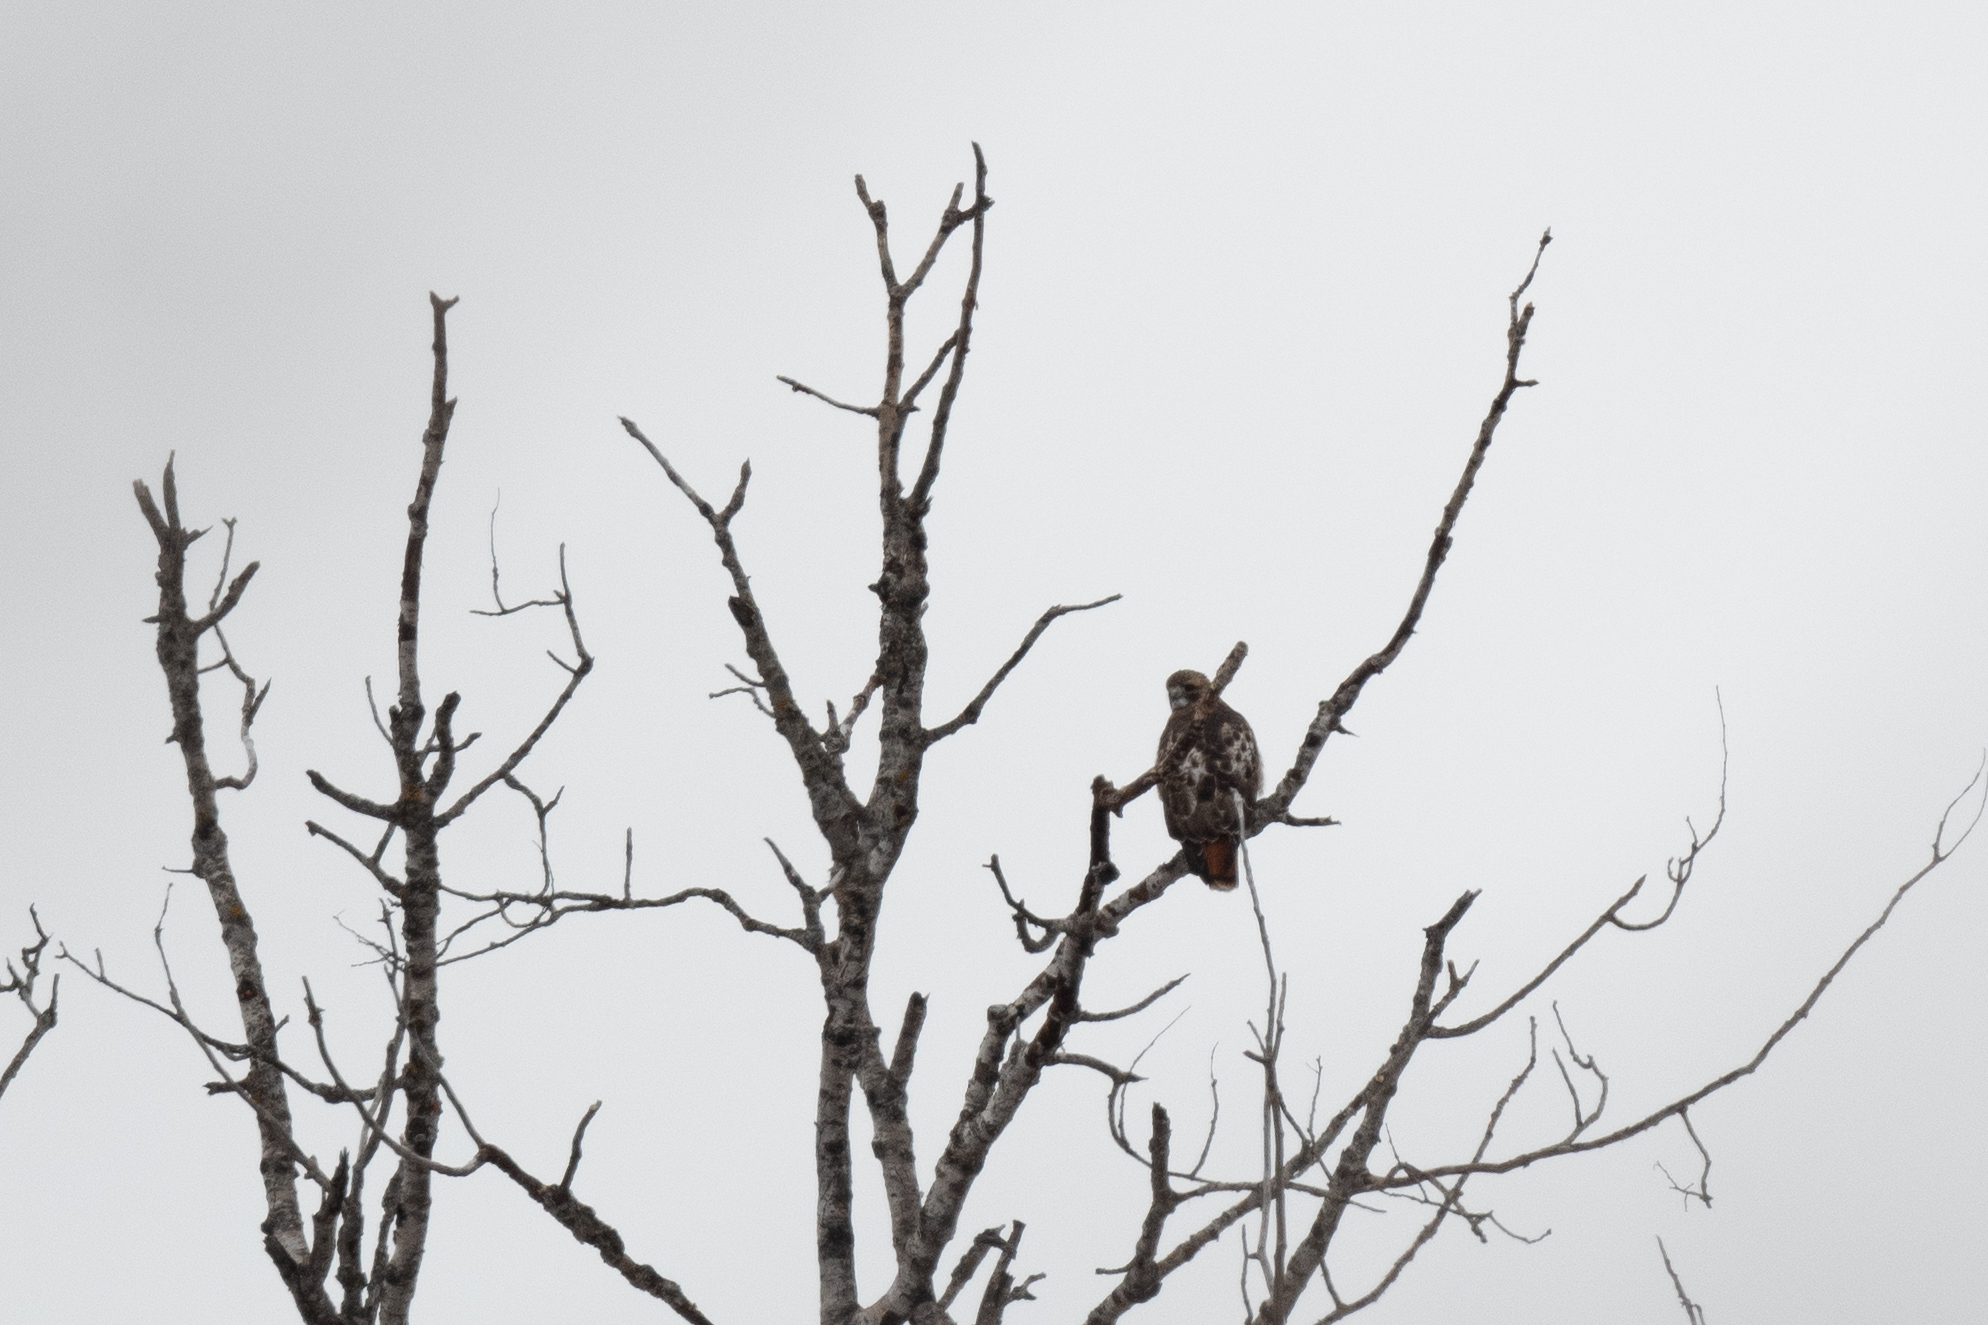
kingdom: Animalia
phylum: Chordata
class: Aves
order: Accipitriformes
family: Accipitridae
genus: Buteo
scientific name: Buteo jamaicensis
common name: Red-tailed hawk
